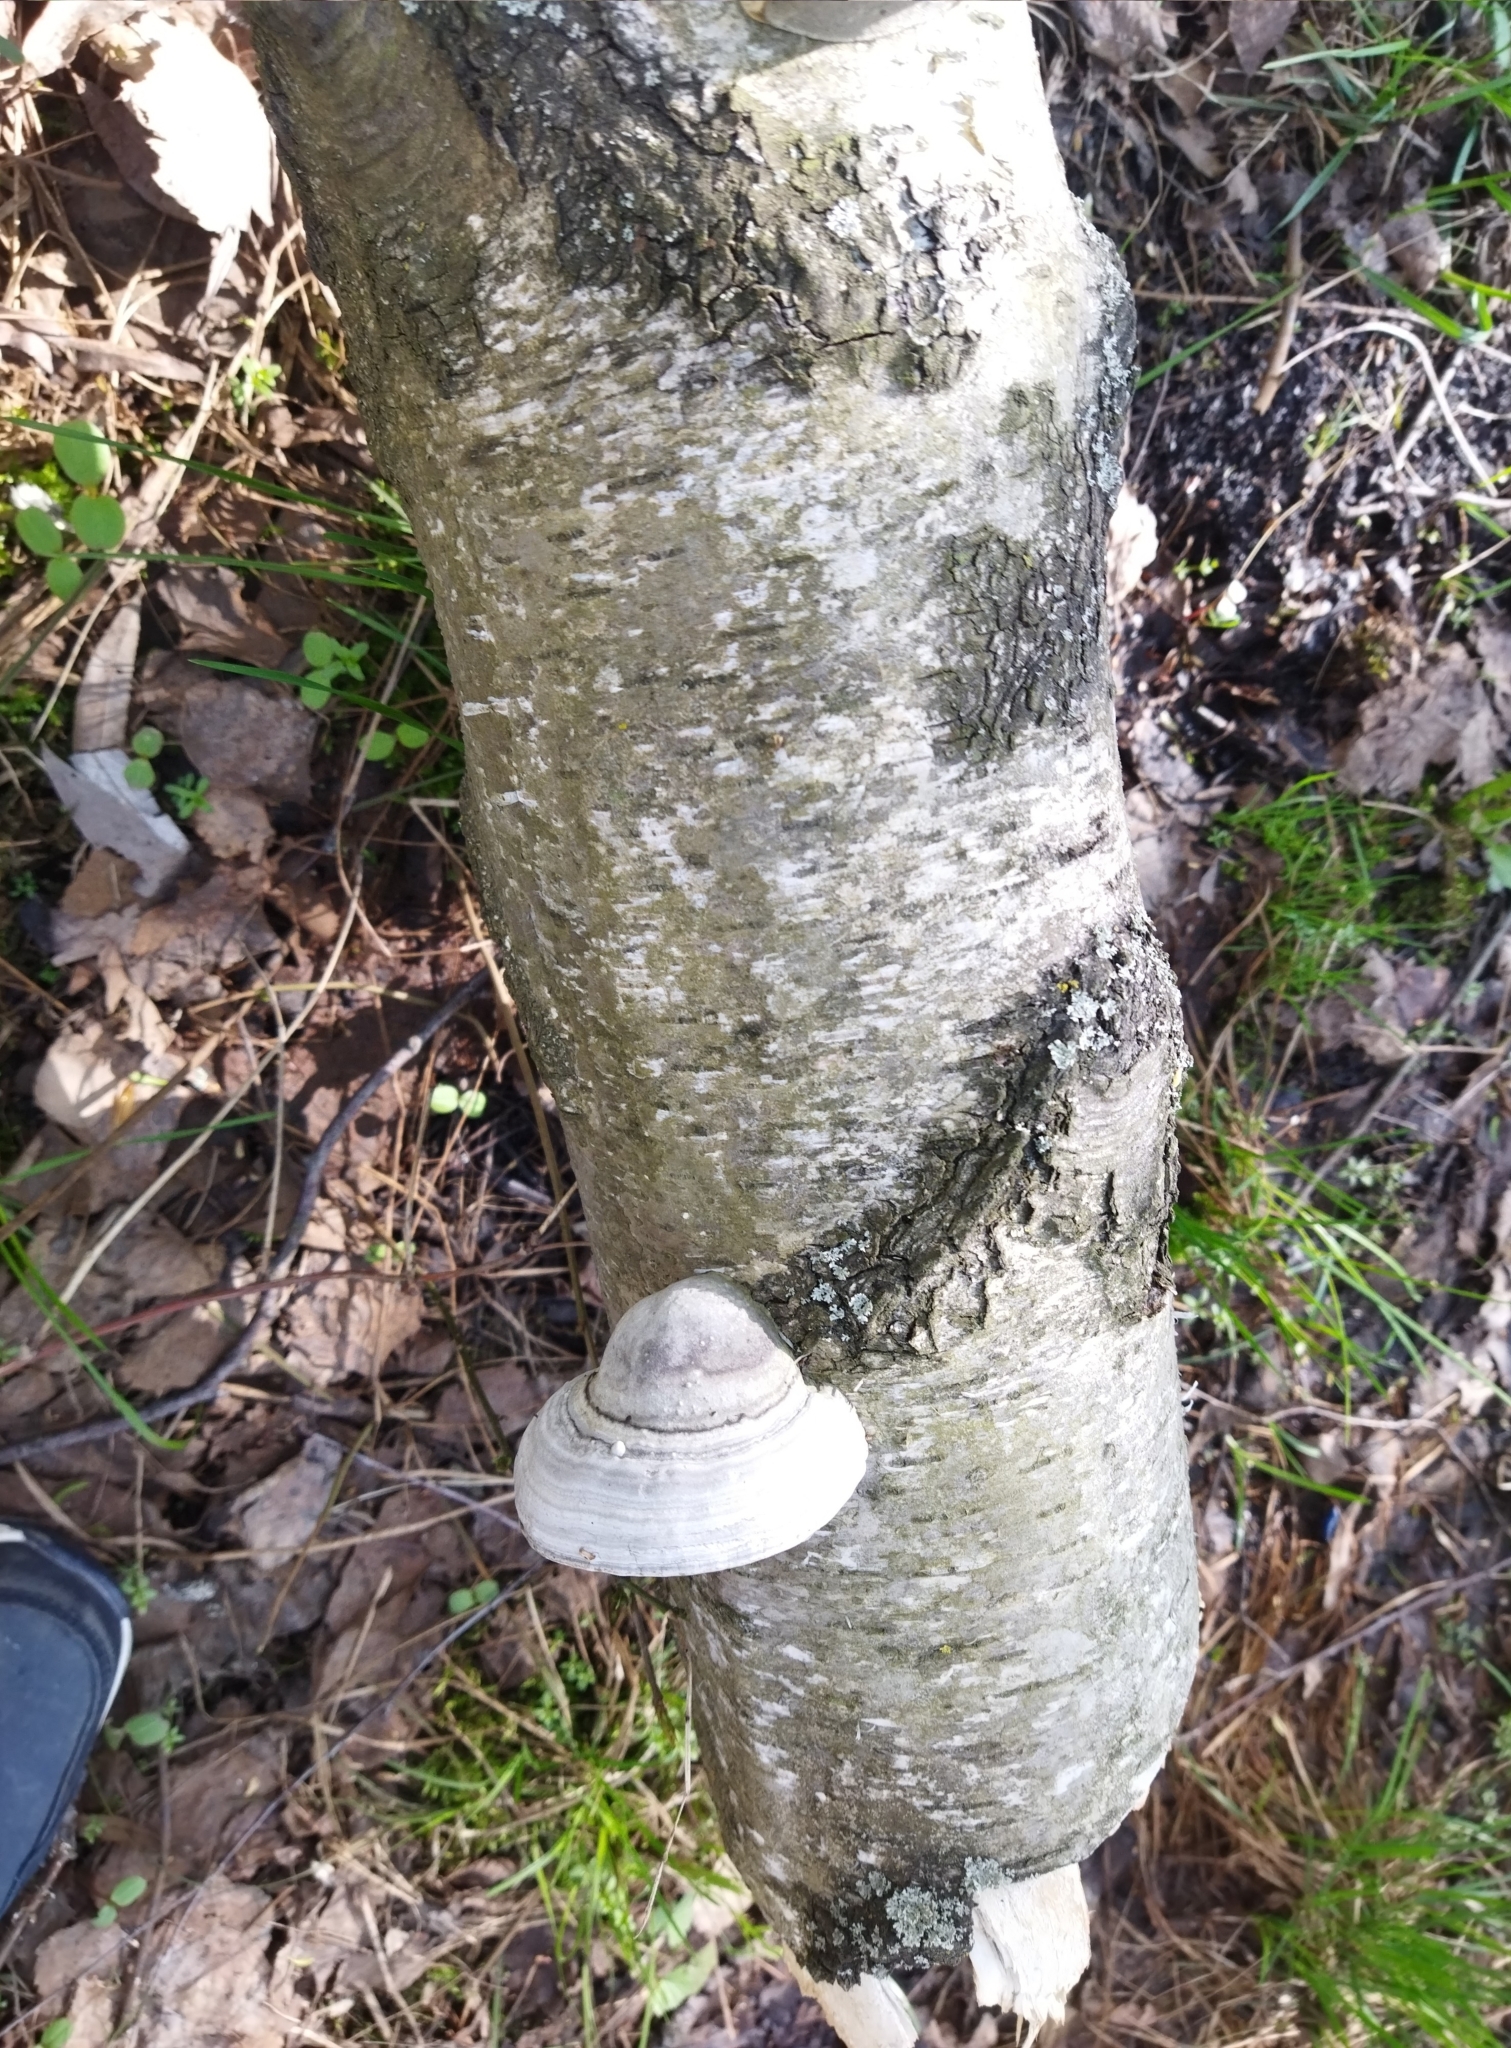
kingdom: Fungi
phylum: Basidiomycota
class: Agaricomycetes
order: Polyporales
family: Polyporaceae
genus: Fomes
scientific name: Fomes fomentarius
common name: Hoof fungus
